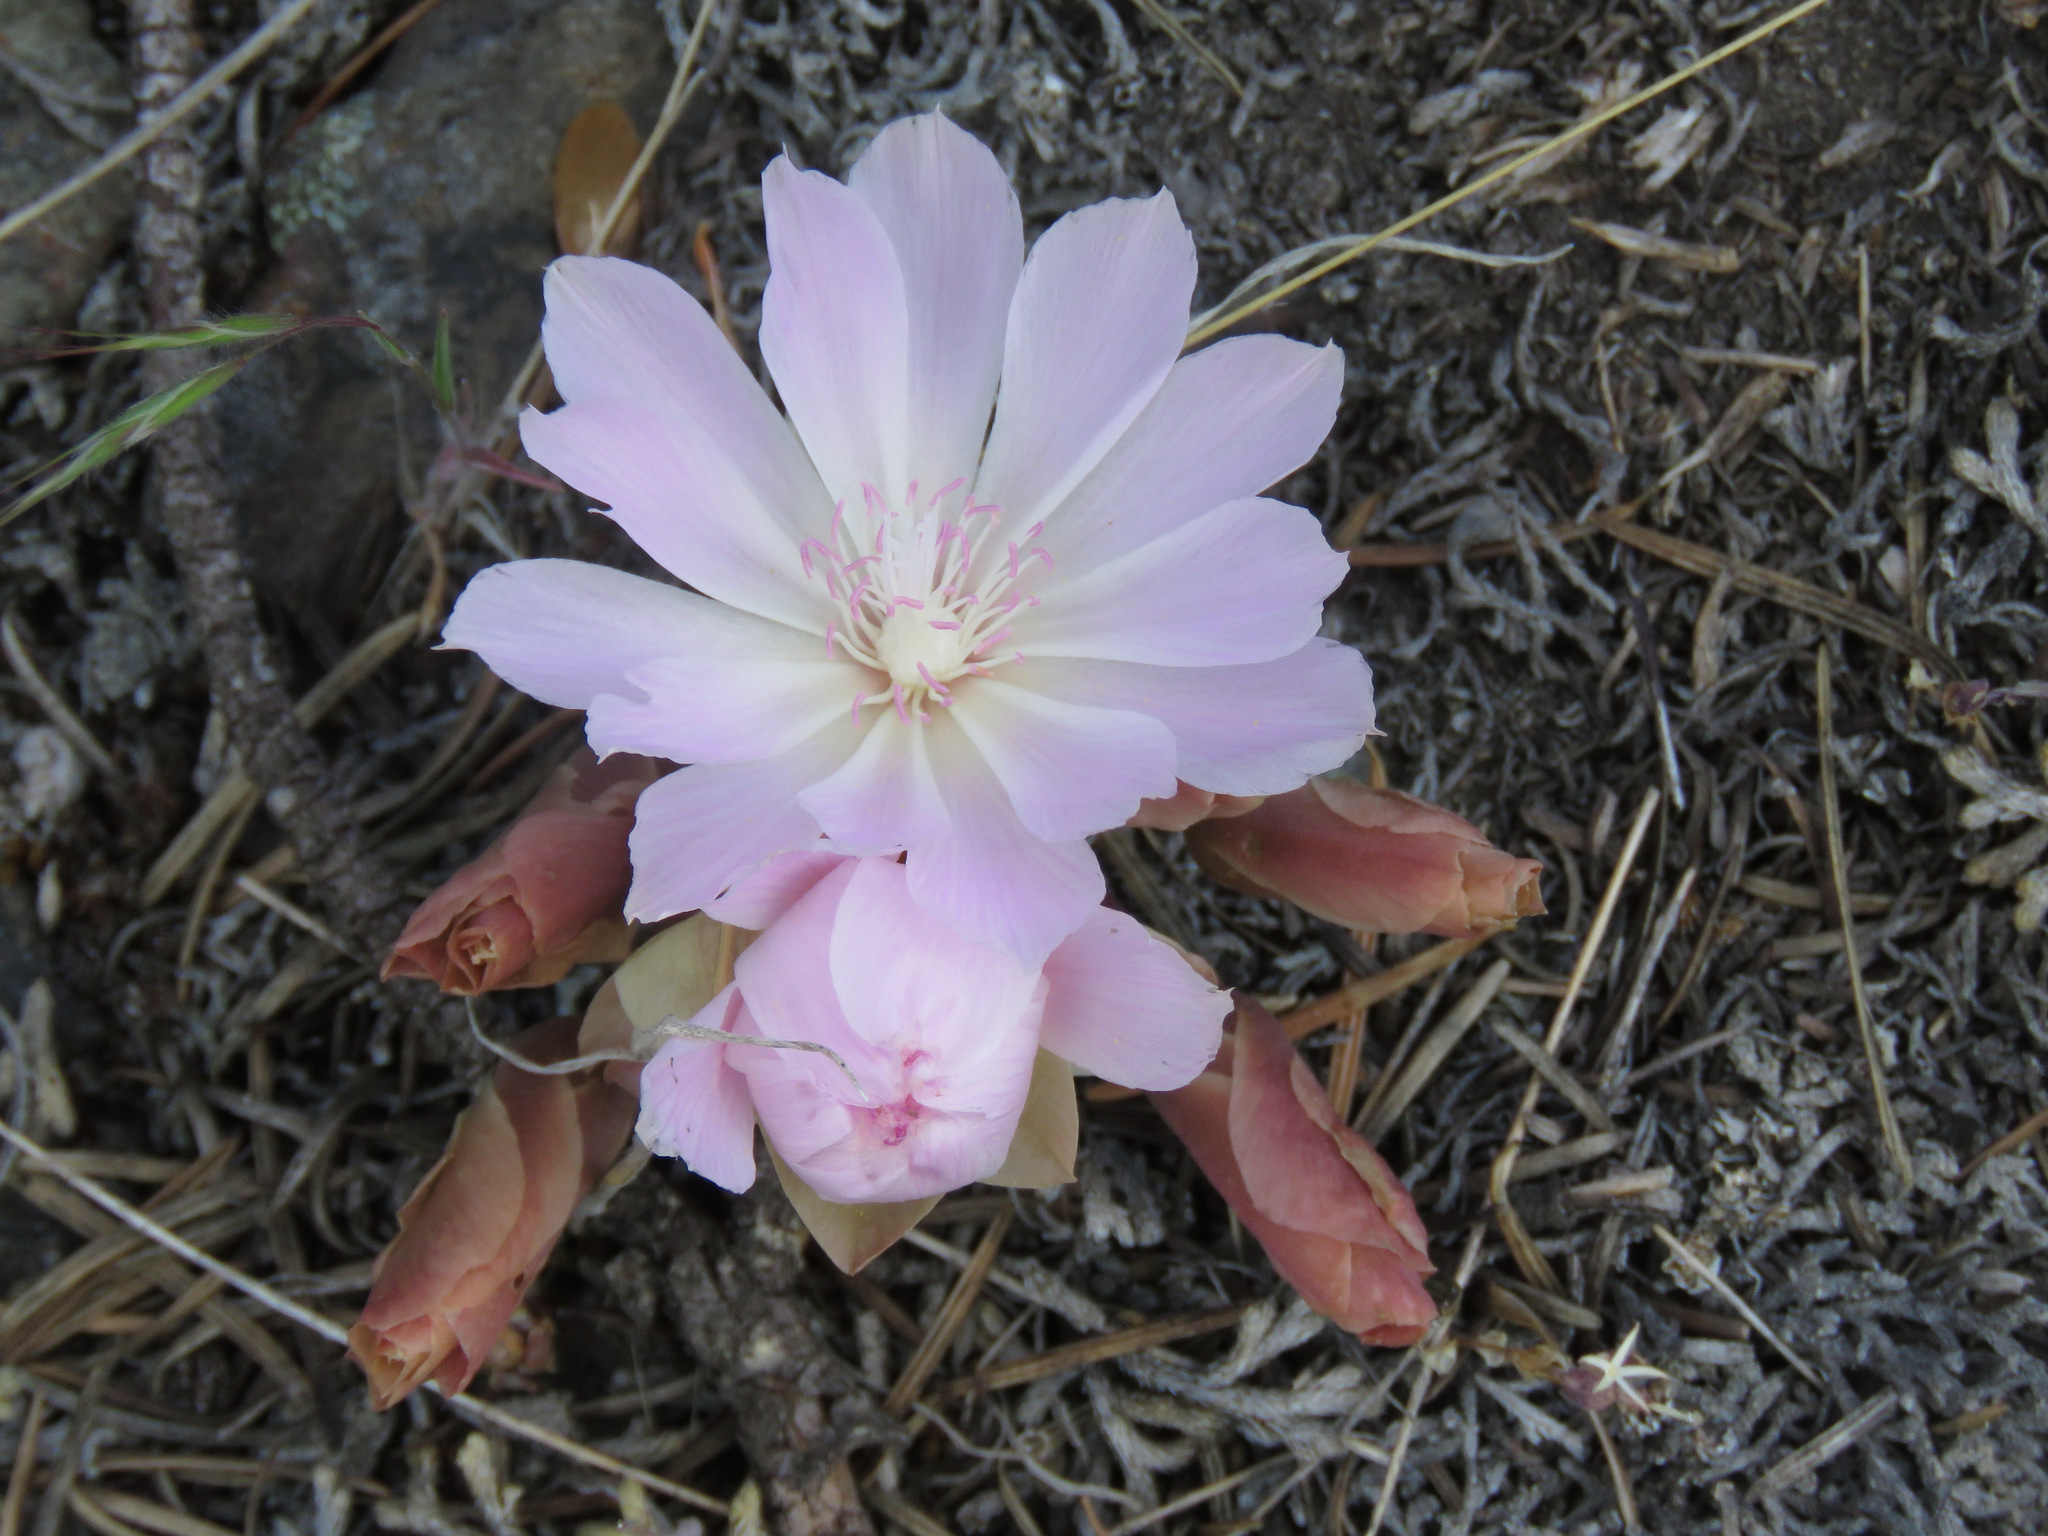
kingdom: Plantae
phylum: Tracheophyta
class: Magnoliopsida
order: Caryophyllales
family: Montiaceae
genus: Lewisia
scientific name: Lewisia rediviva
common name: Bitter-root
